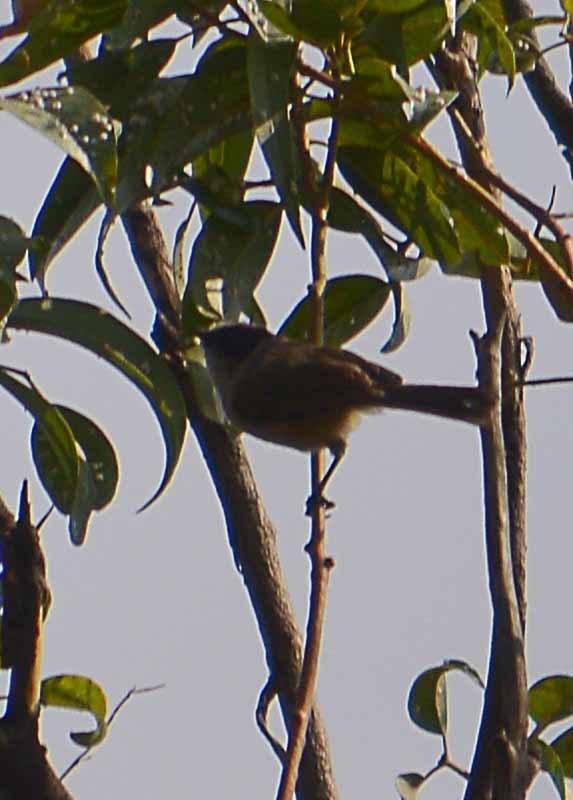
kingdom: Animalia
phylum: Chordata
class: Aves
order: Passeriformes
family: Aegithalidae
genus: Psaltriparus
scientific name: Psaltriparus minimus
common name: American bushtit
